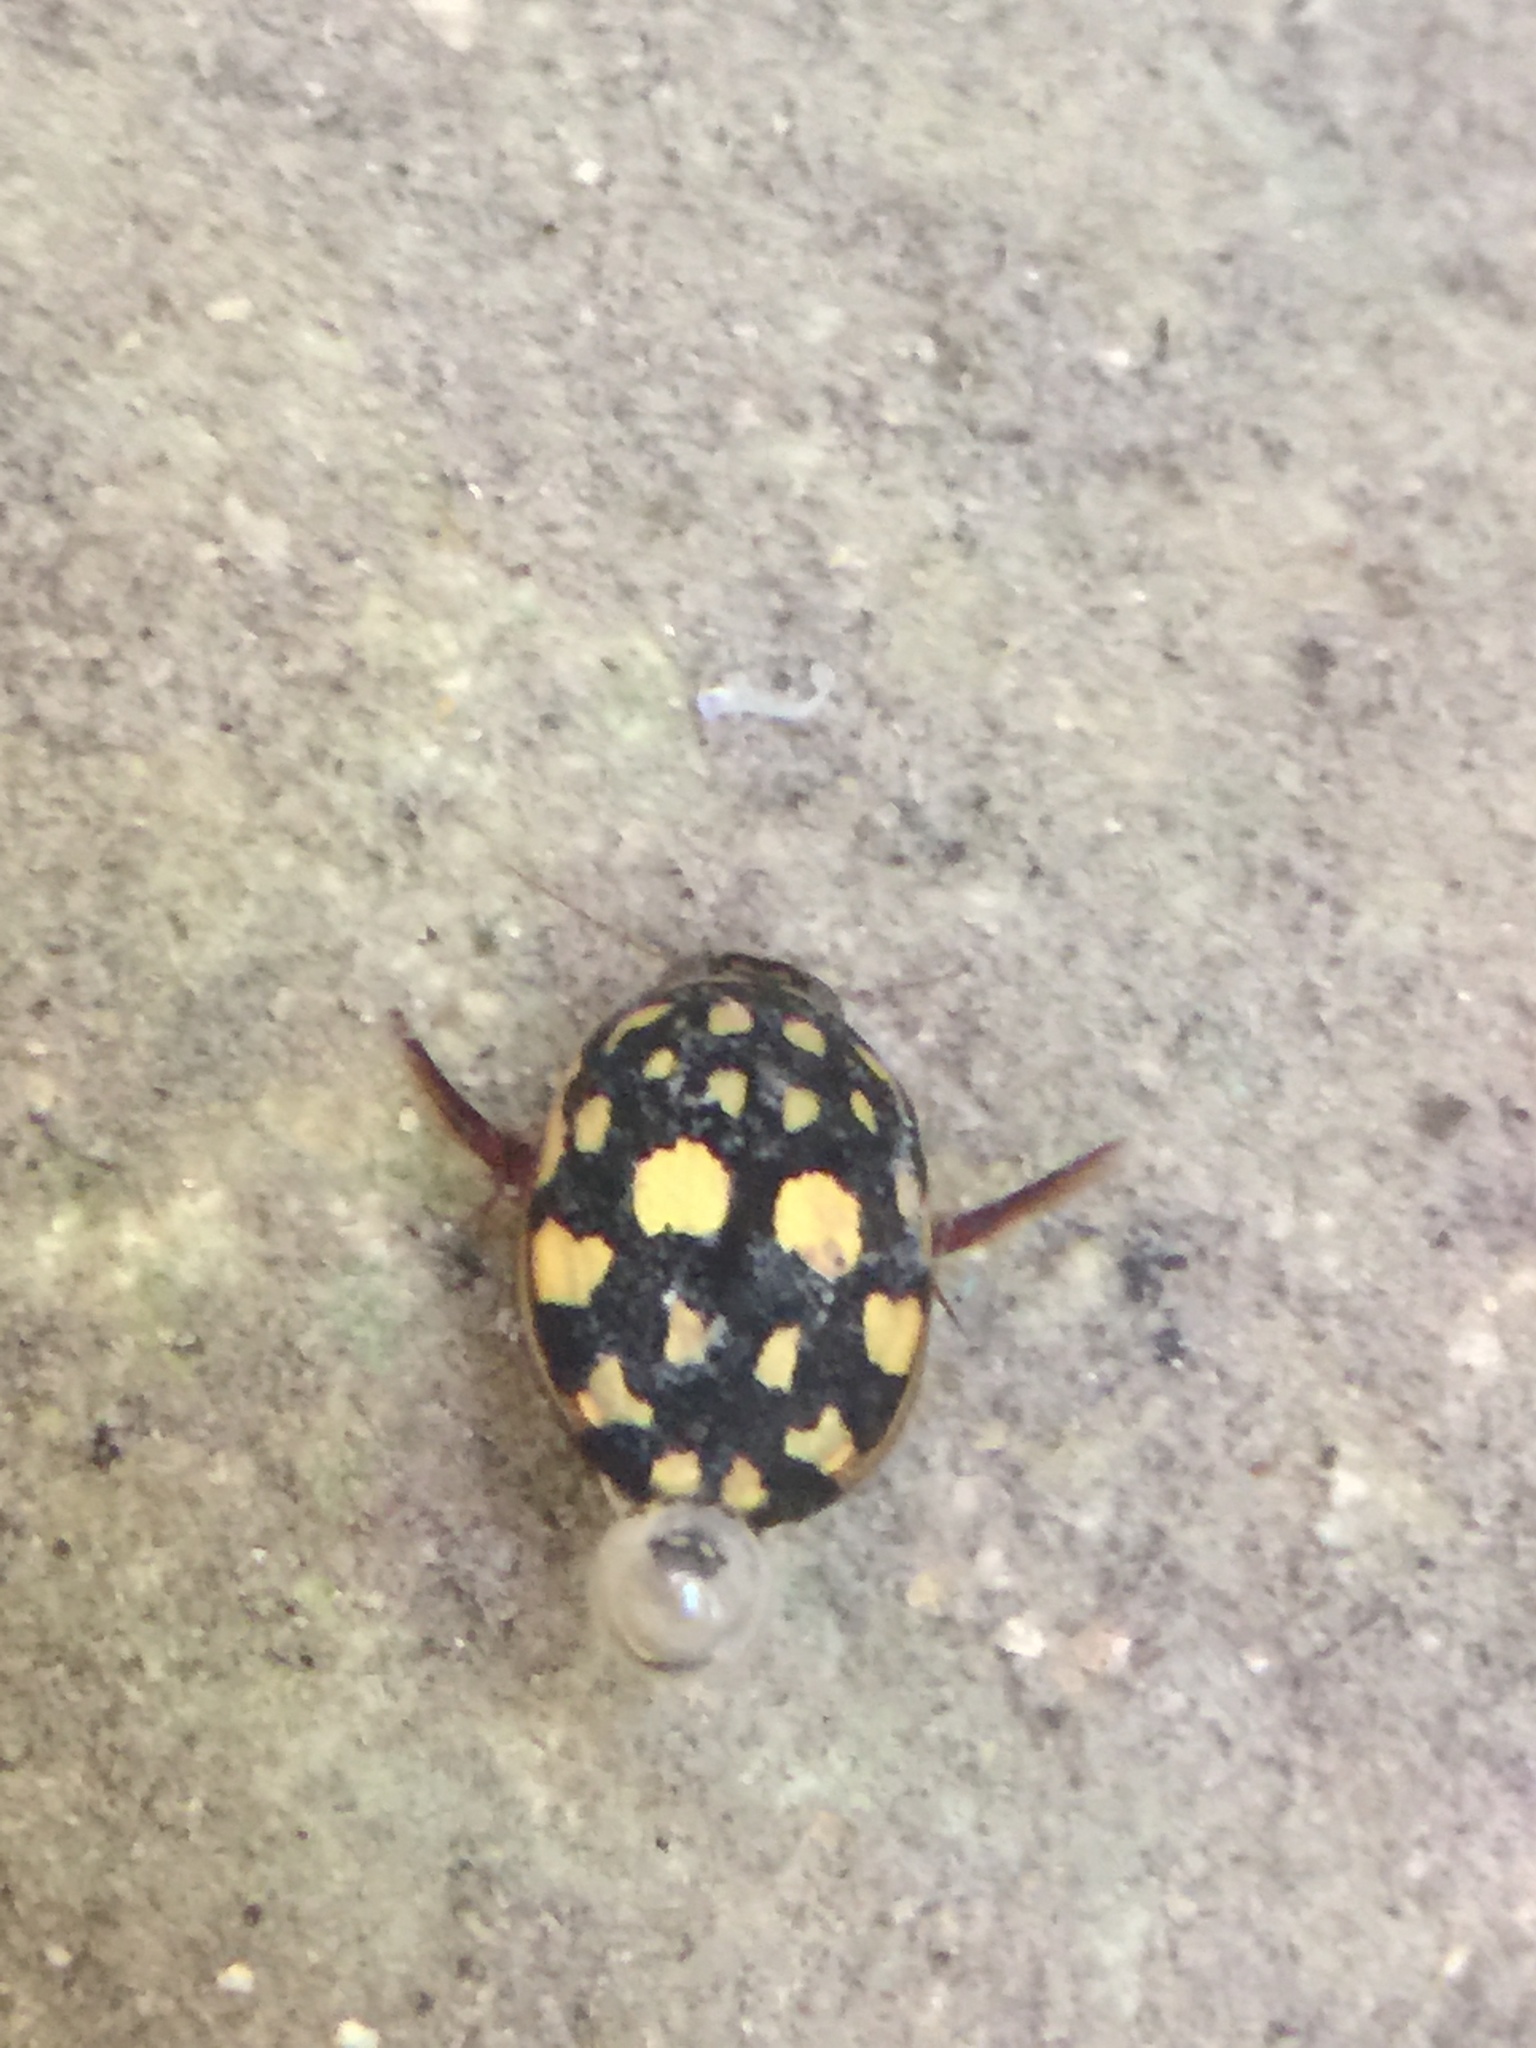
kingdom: Animalia
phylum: Arthropoda
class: Insecta
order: Coleoptera
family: Dytiscidae
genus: Thermonectus
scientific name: Thermonectus marmoratus
